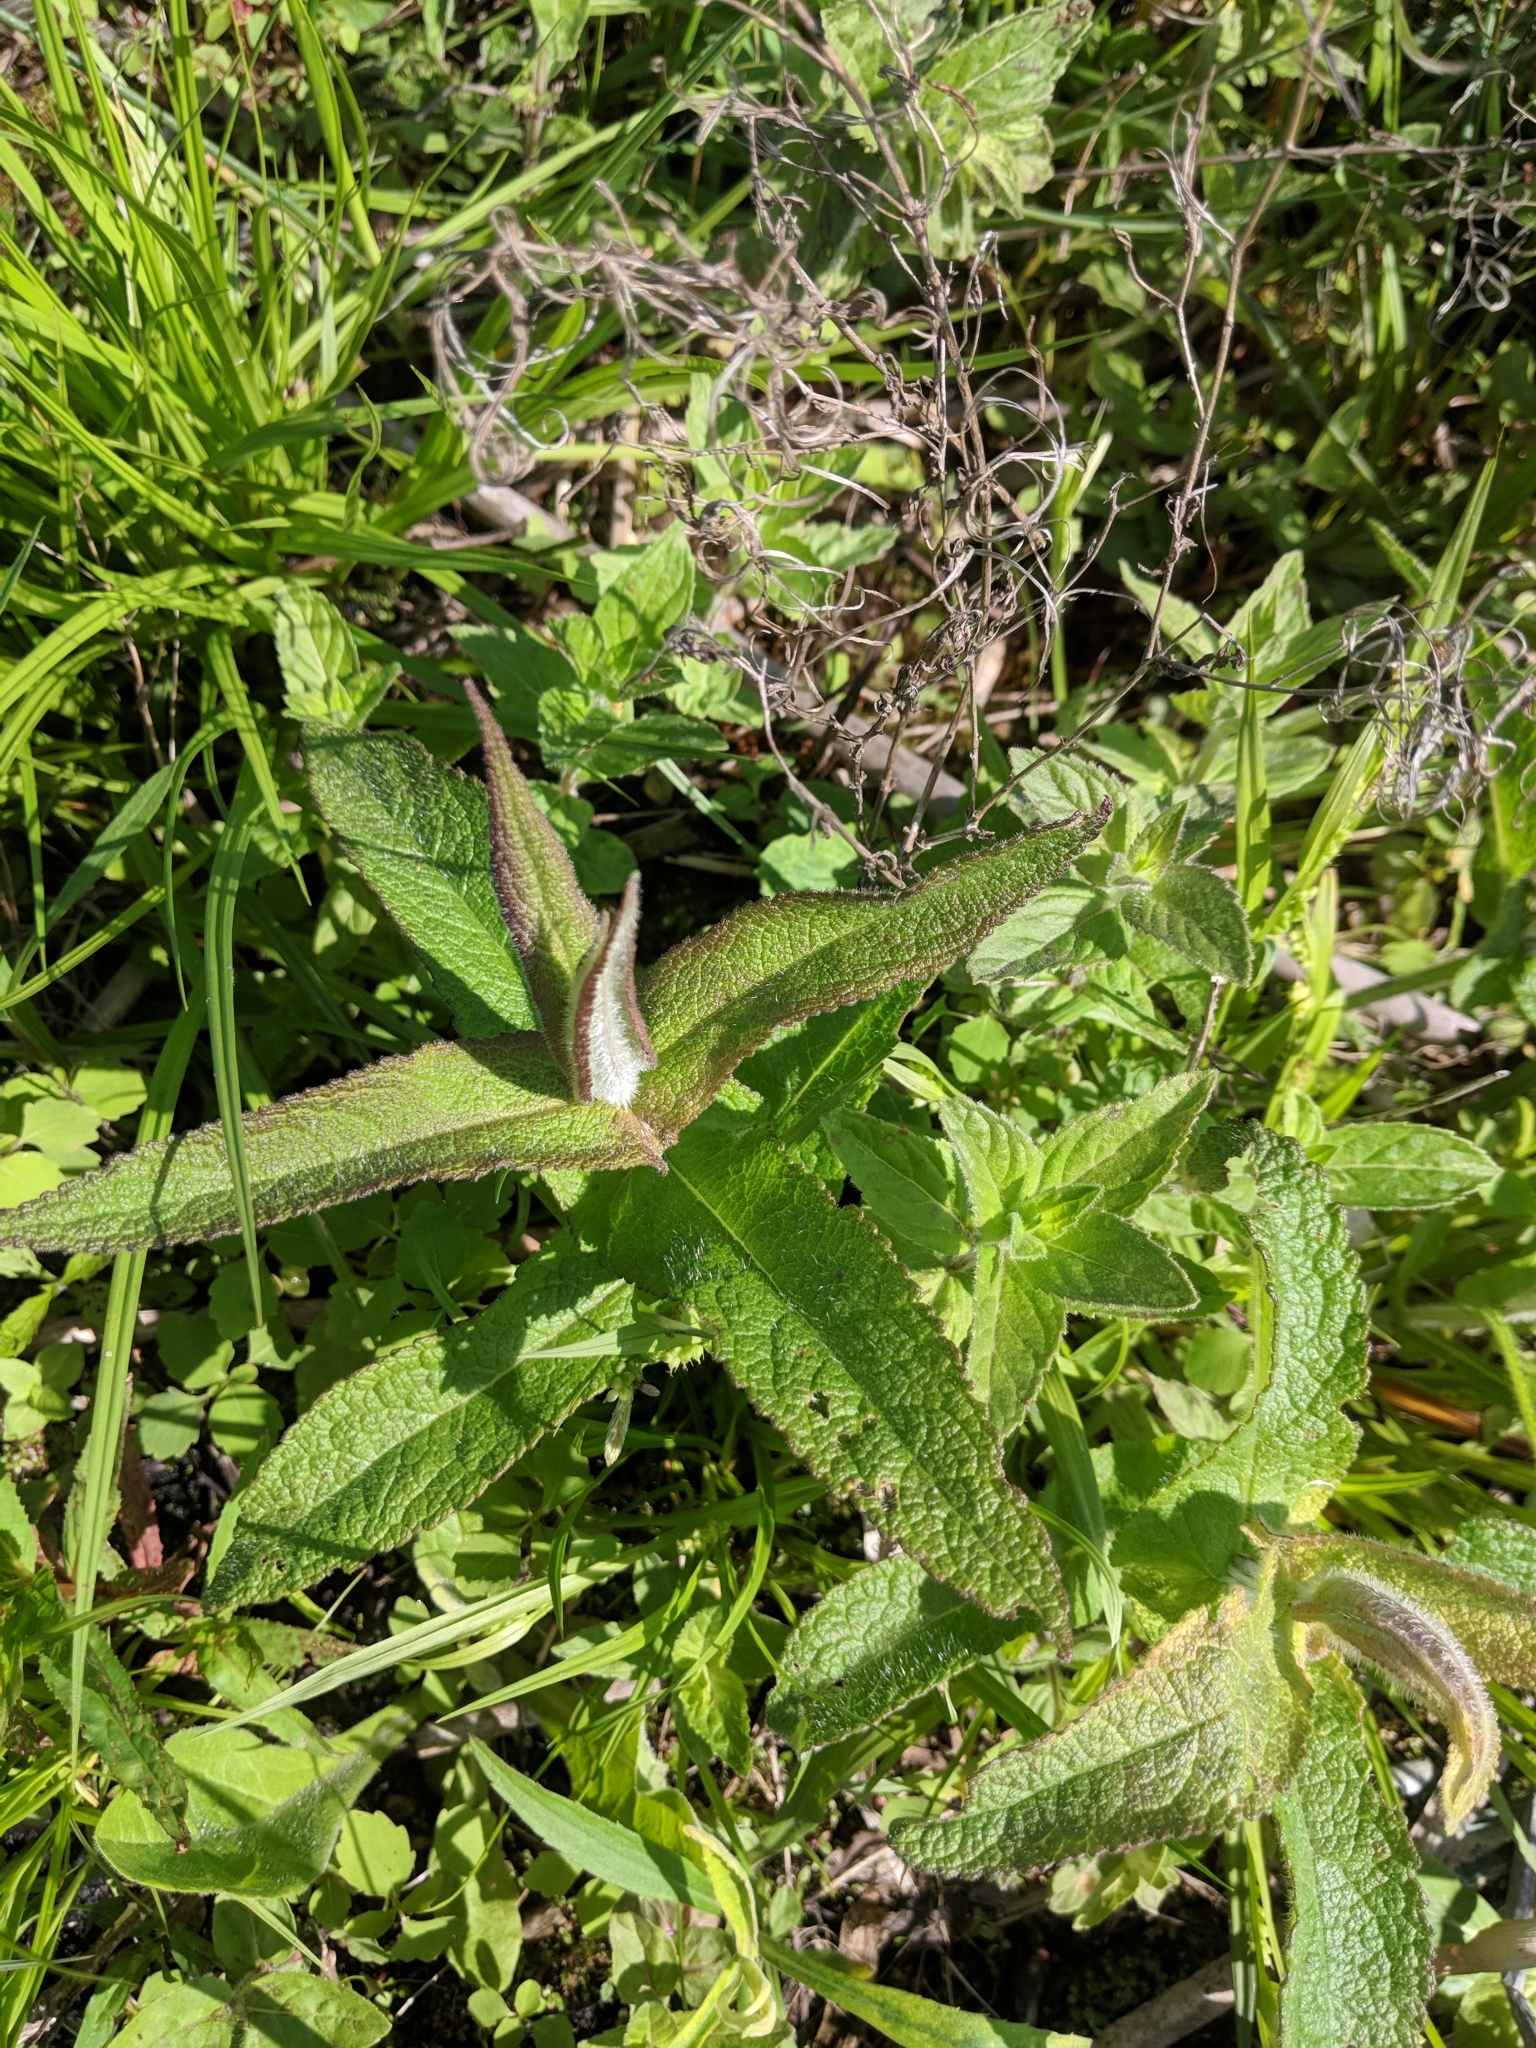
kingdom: Plantae
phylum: Tracheophyta
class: Magnoliopsida
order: Asterales
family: Asteraceae
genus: Eupatorium
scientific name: Eupatorium perfoliatum
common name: Boneset
